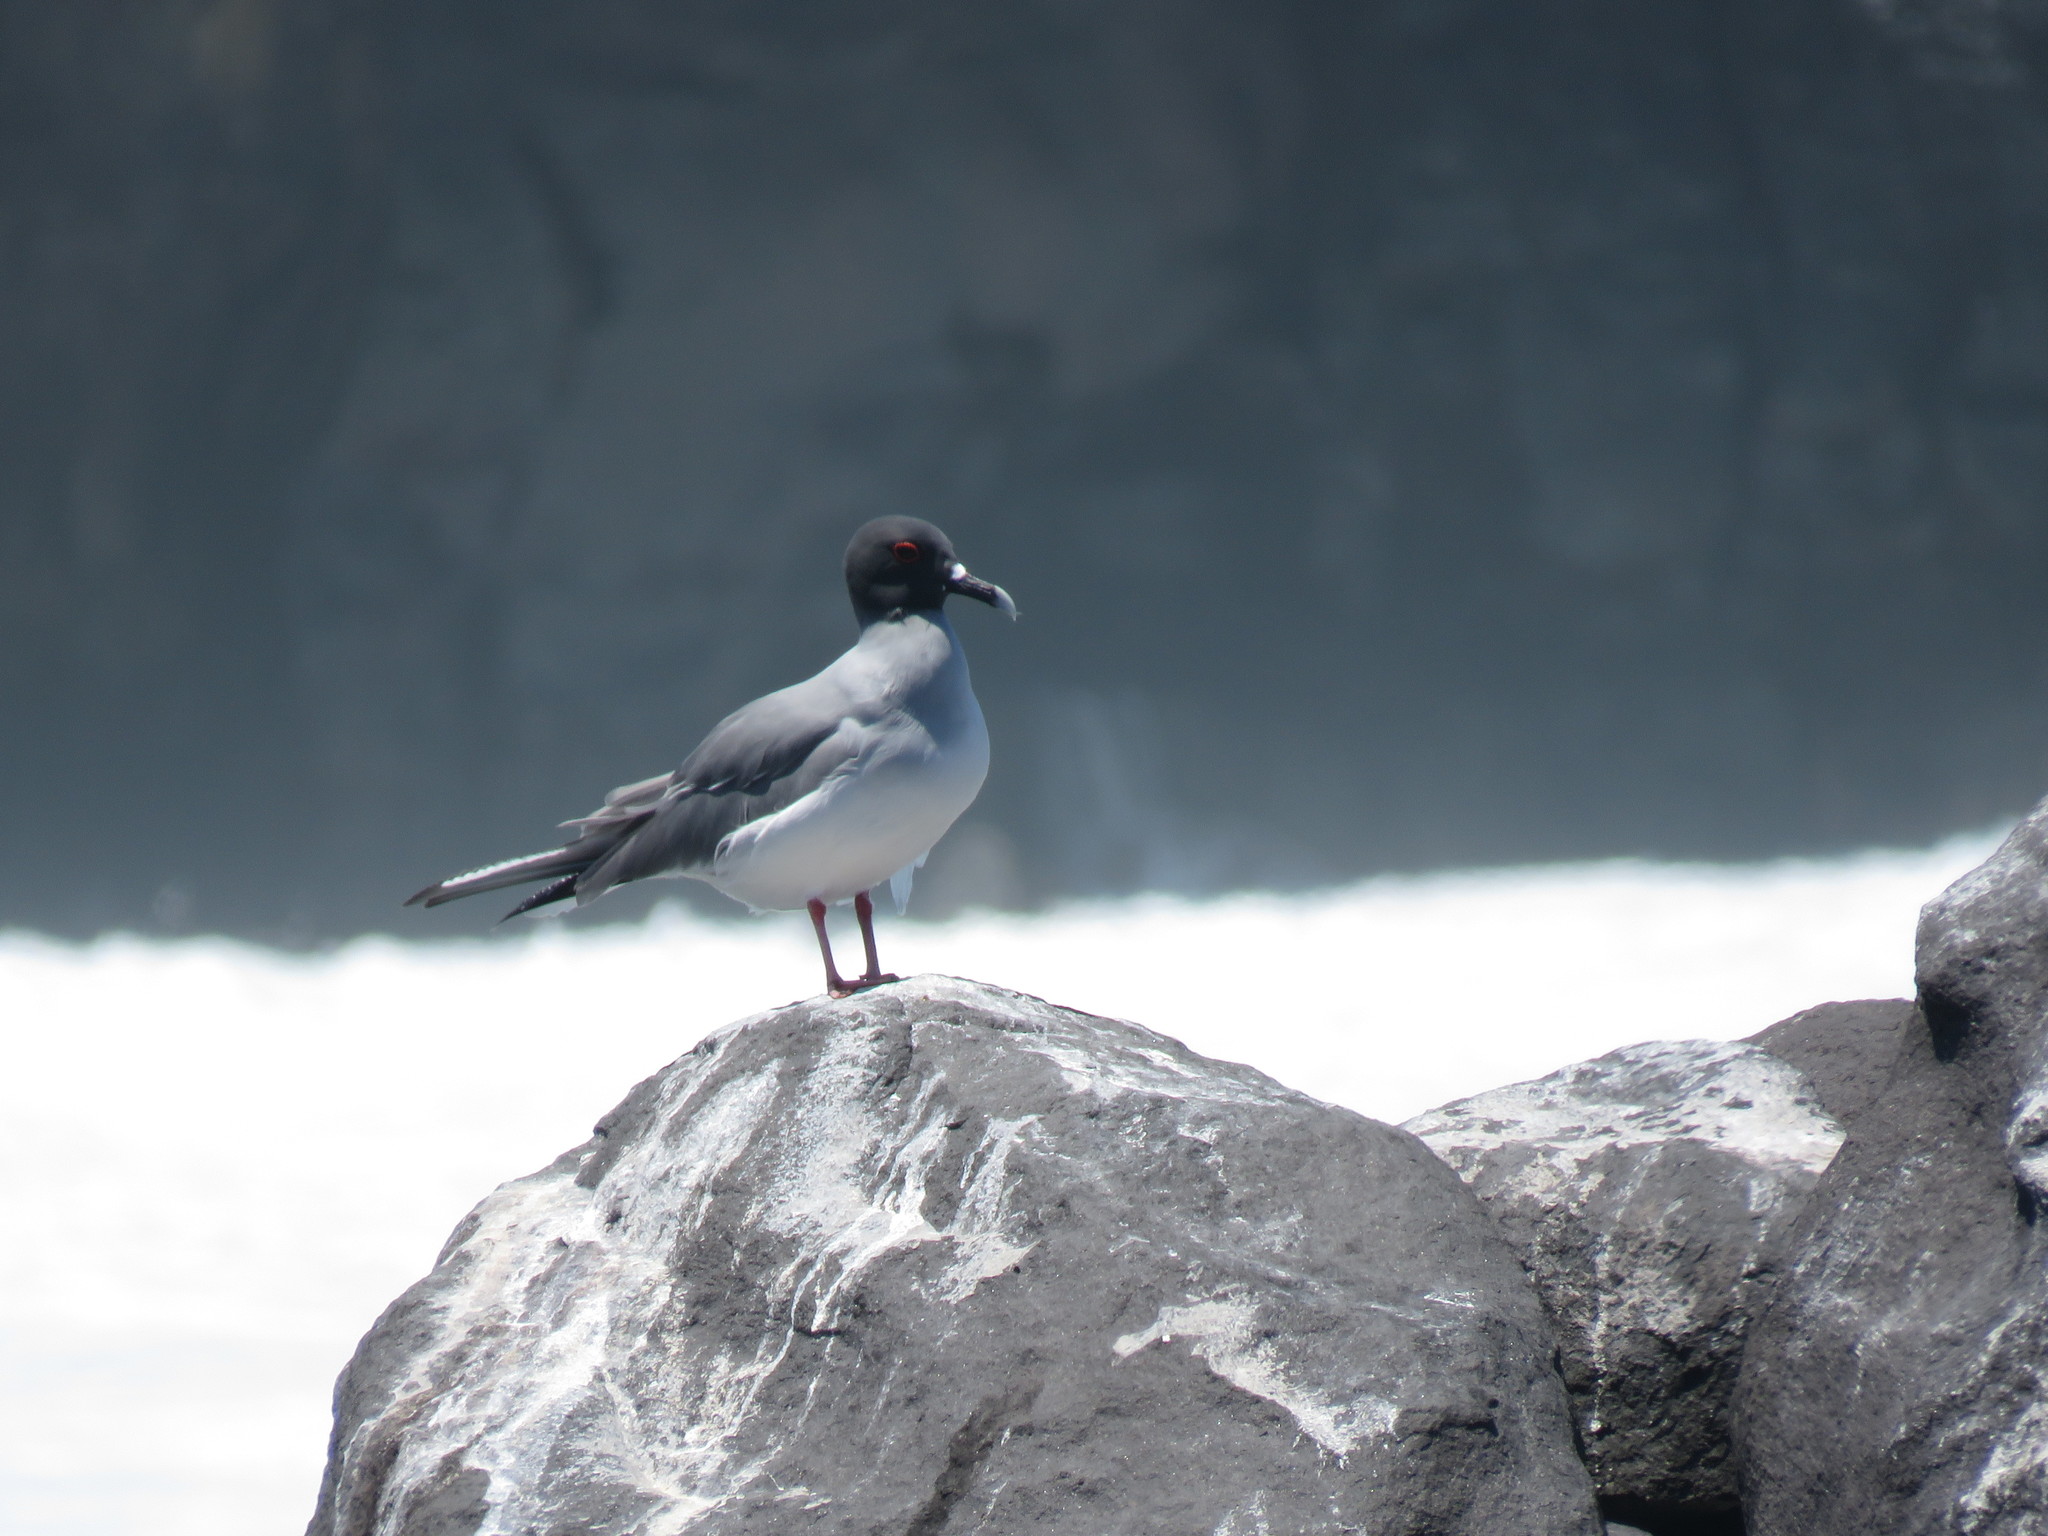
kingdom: Animalia
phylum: Chordata
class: Aves
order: Charadriiformes
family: Laridae
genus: Creagrus
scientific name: Creagrus furcatus
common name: Swallow-tailed gull
